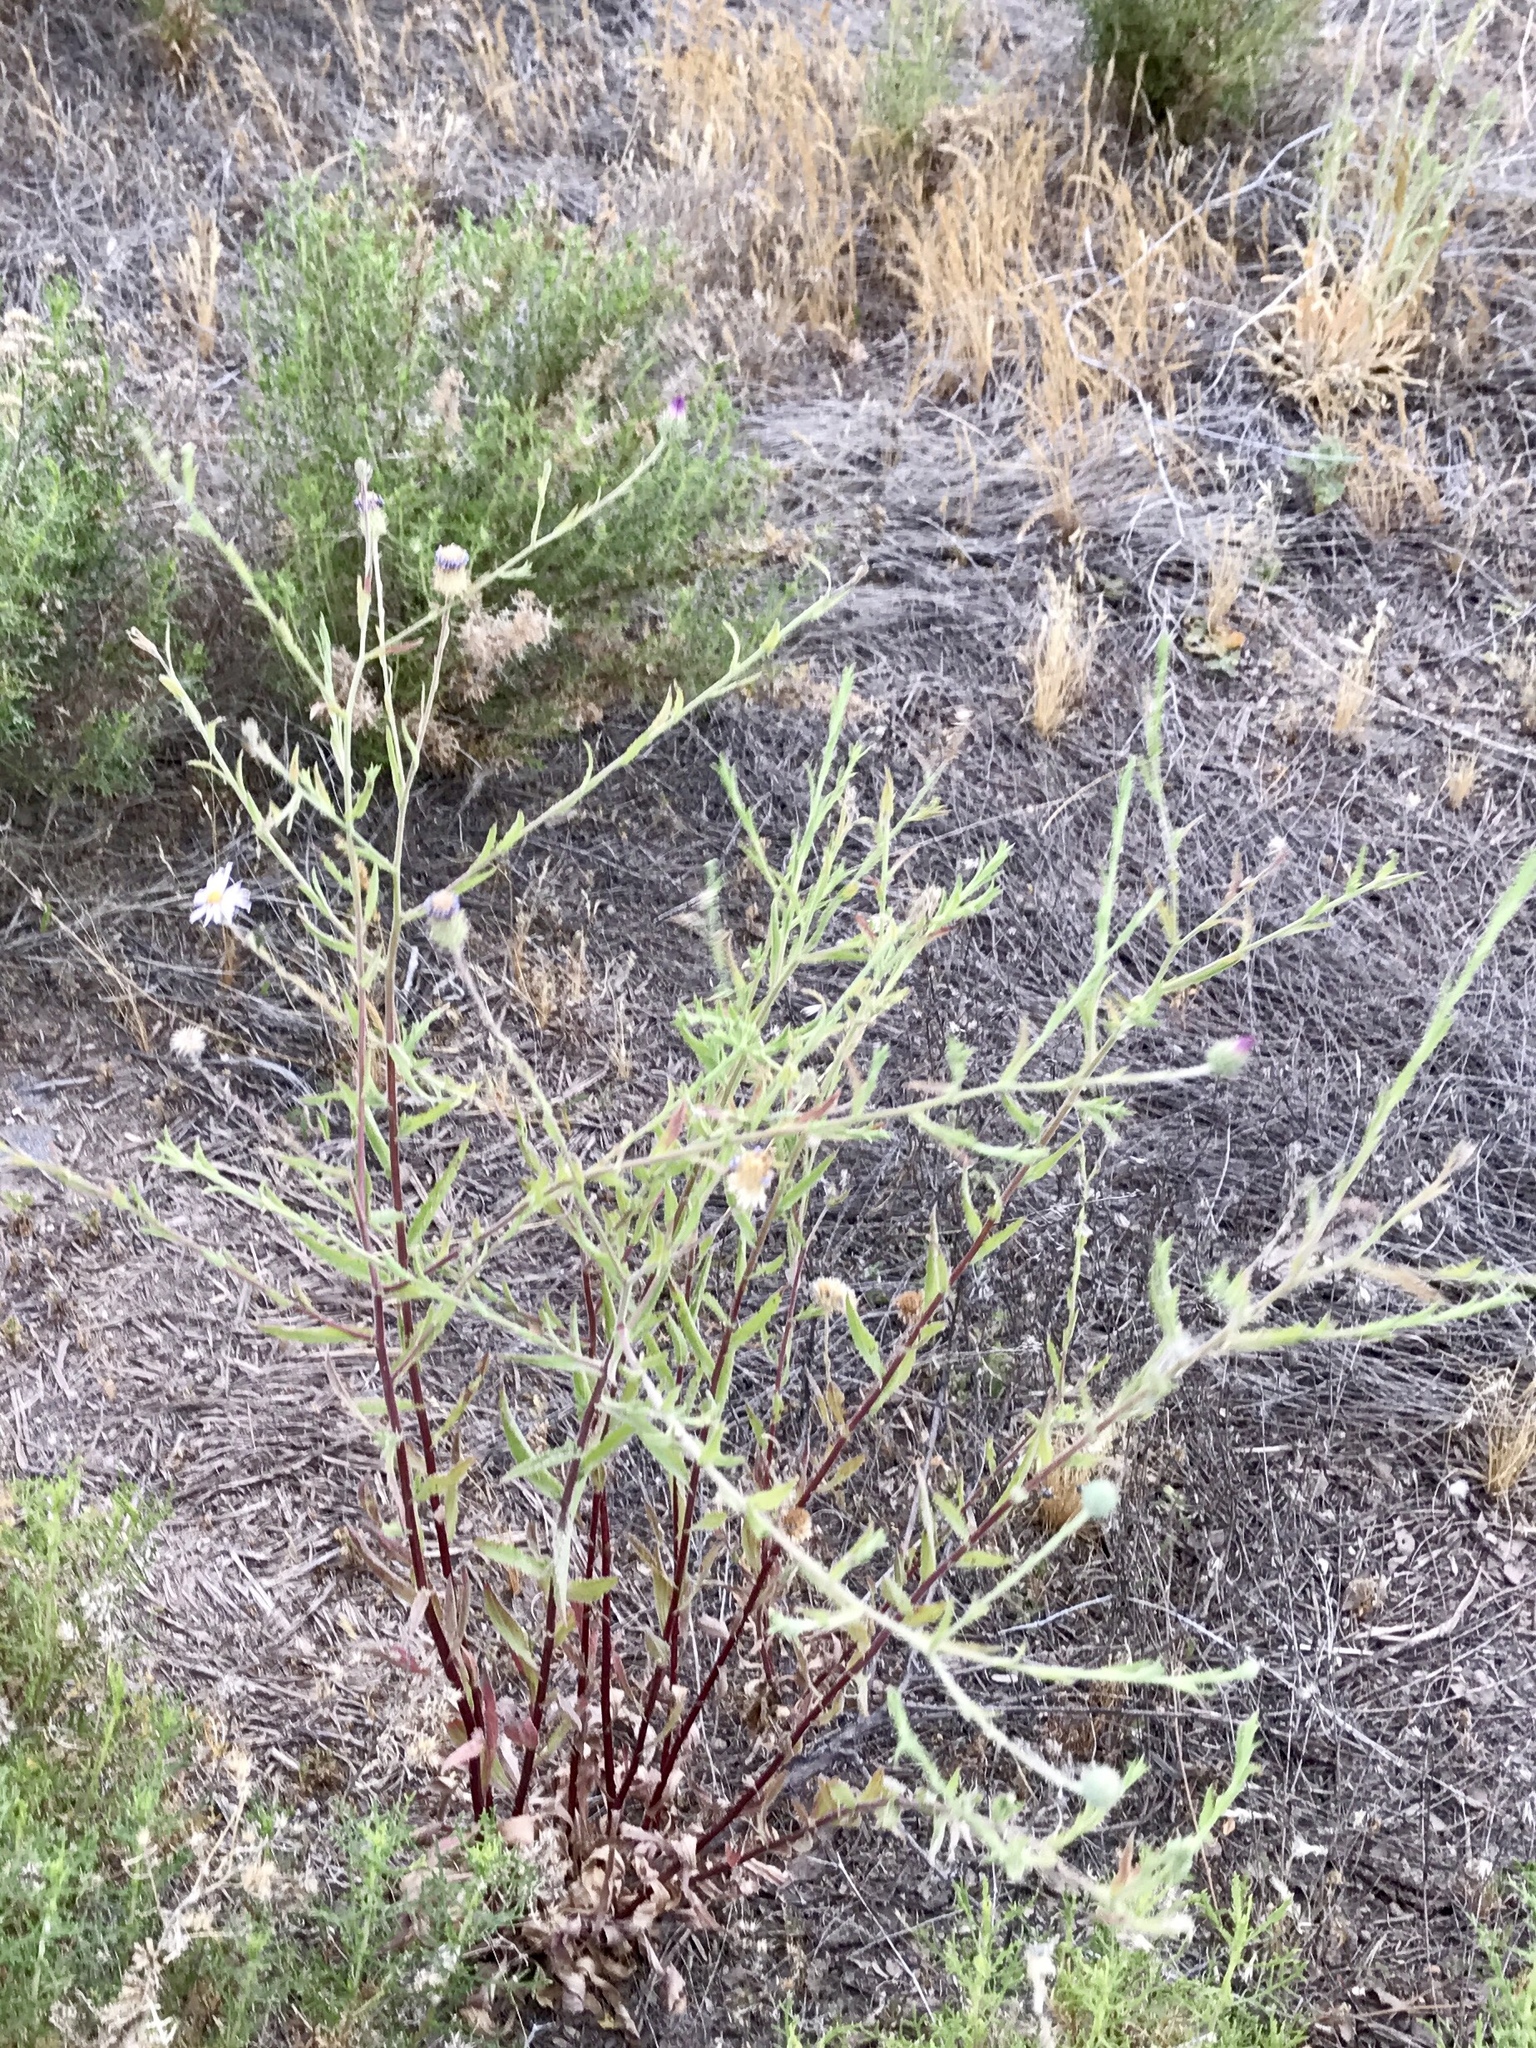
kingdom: Plantae
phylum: Tracheophyta
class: Magnoliopsida
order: Asterales
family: Asteraceae
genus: Machaeranthera
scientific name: Machaeranthera tanacetifolia
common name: Tansy-aster
